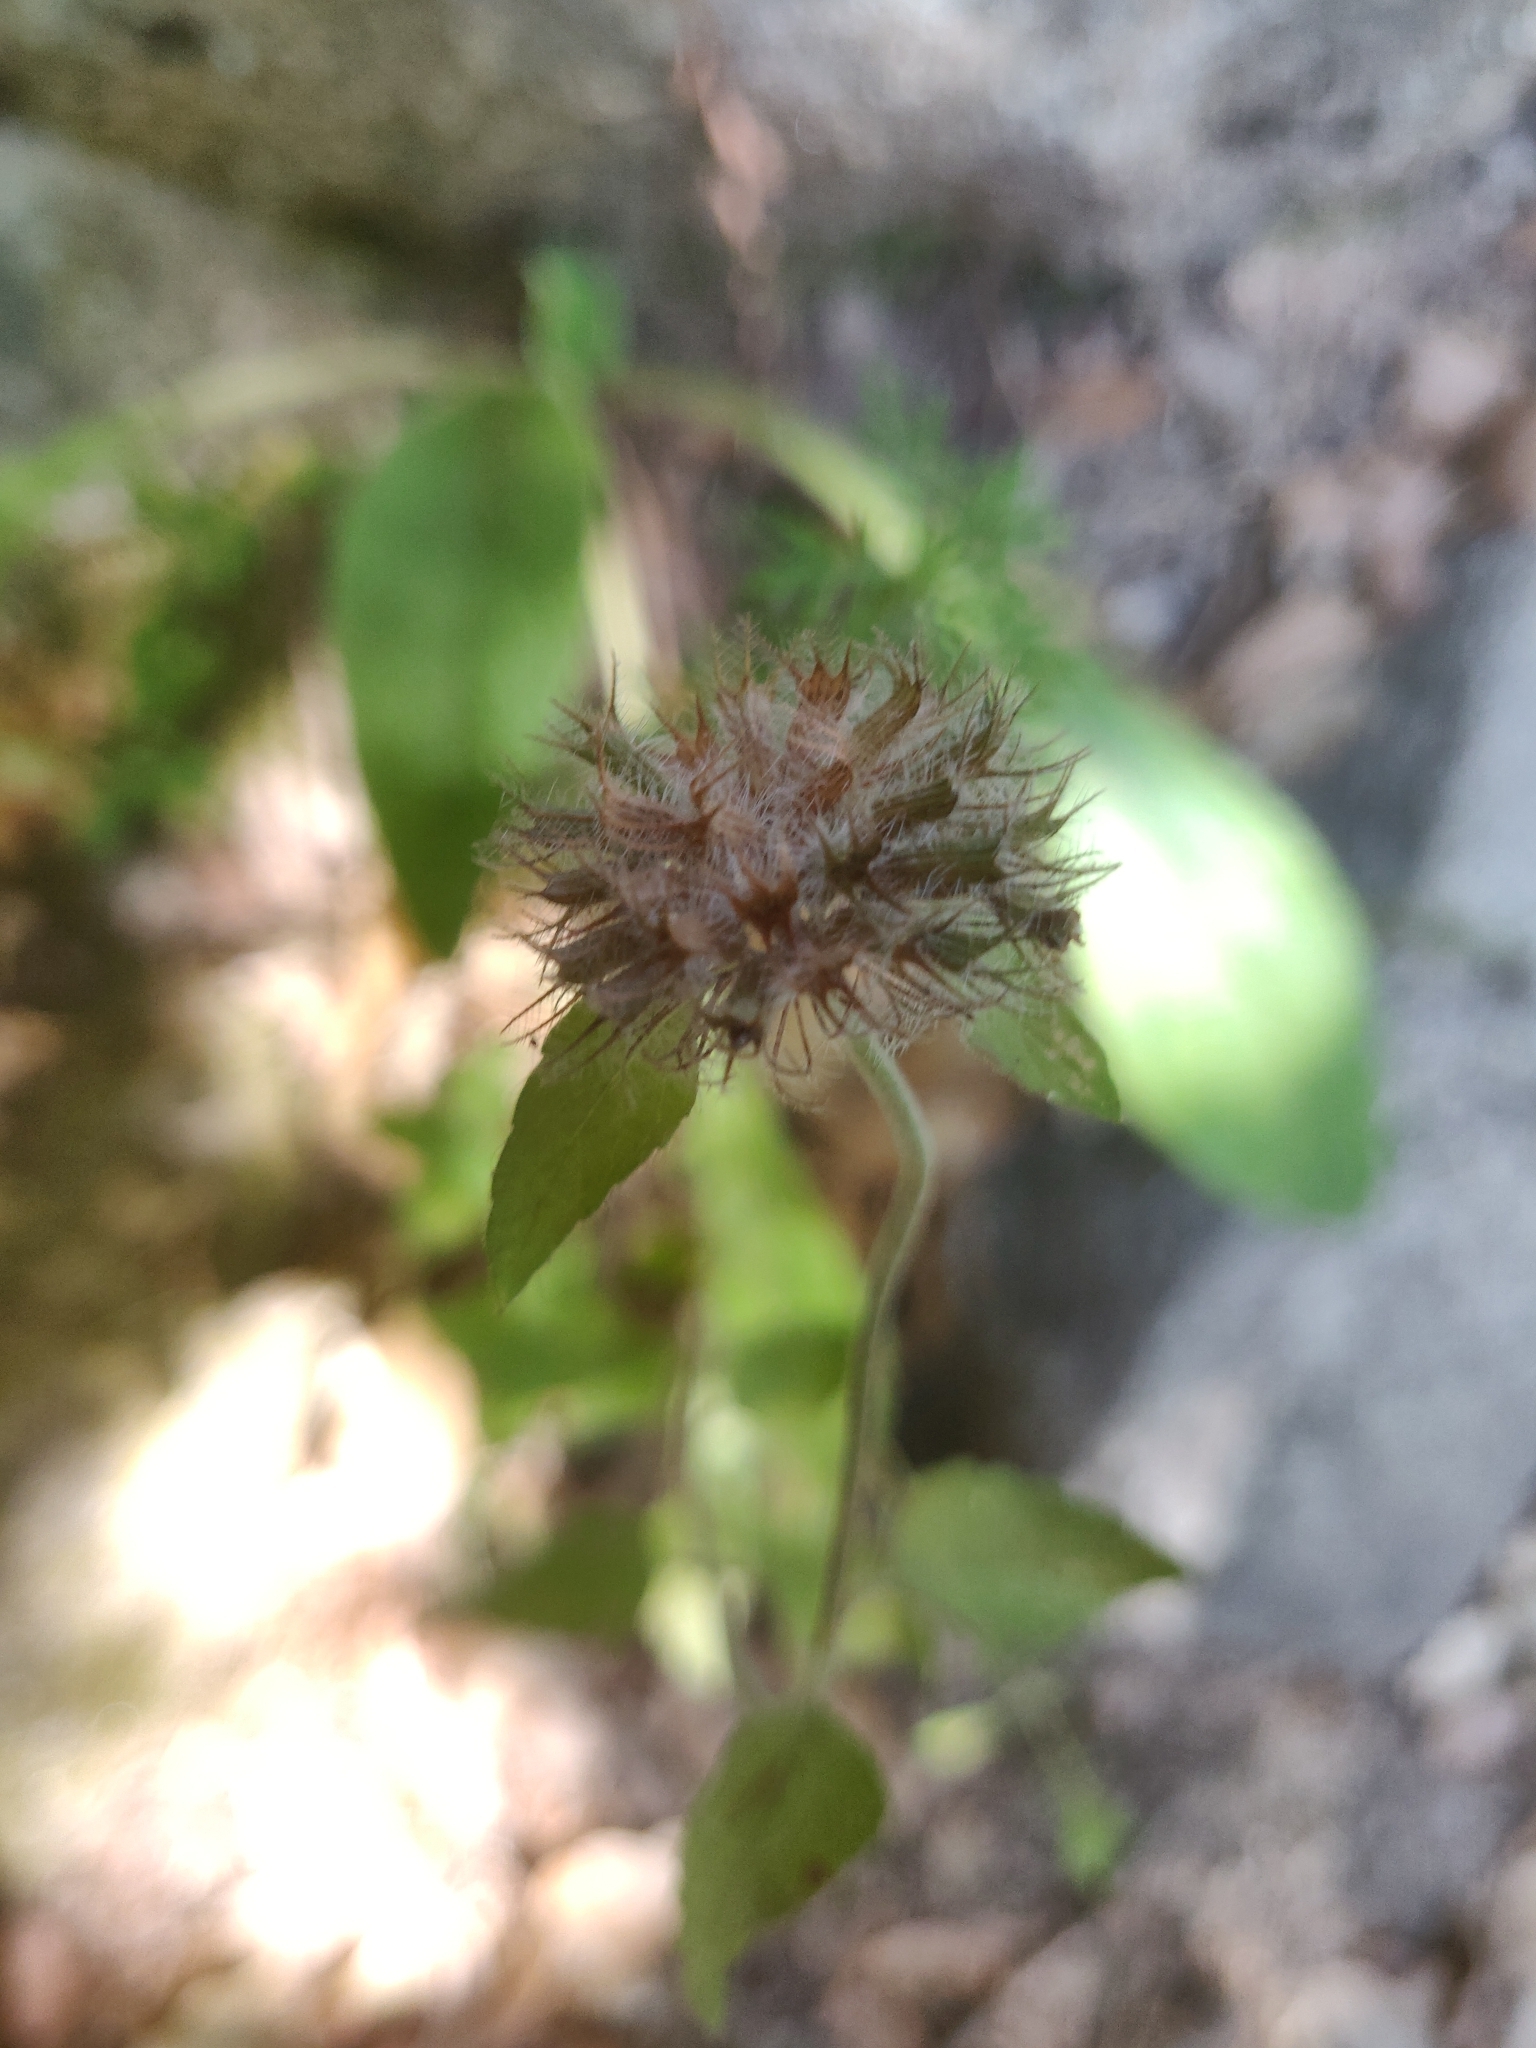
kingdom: Plantae
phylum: Tracheophyta
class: Magnoliopsida
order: Lamiales
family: Lamiaceae
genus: Clinopodium
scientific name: Clinopodium vulgare
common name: Wild basil
